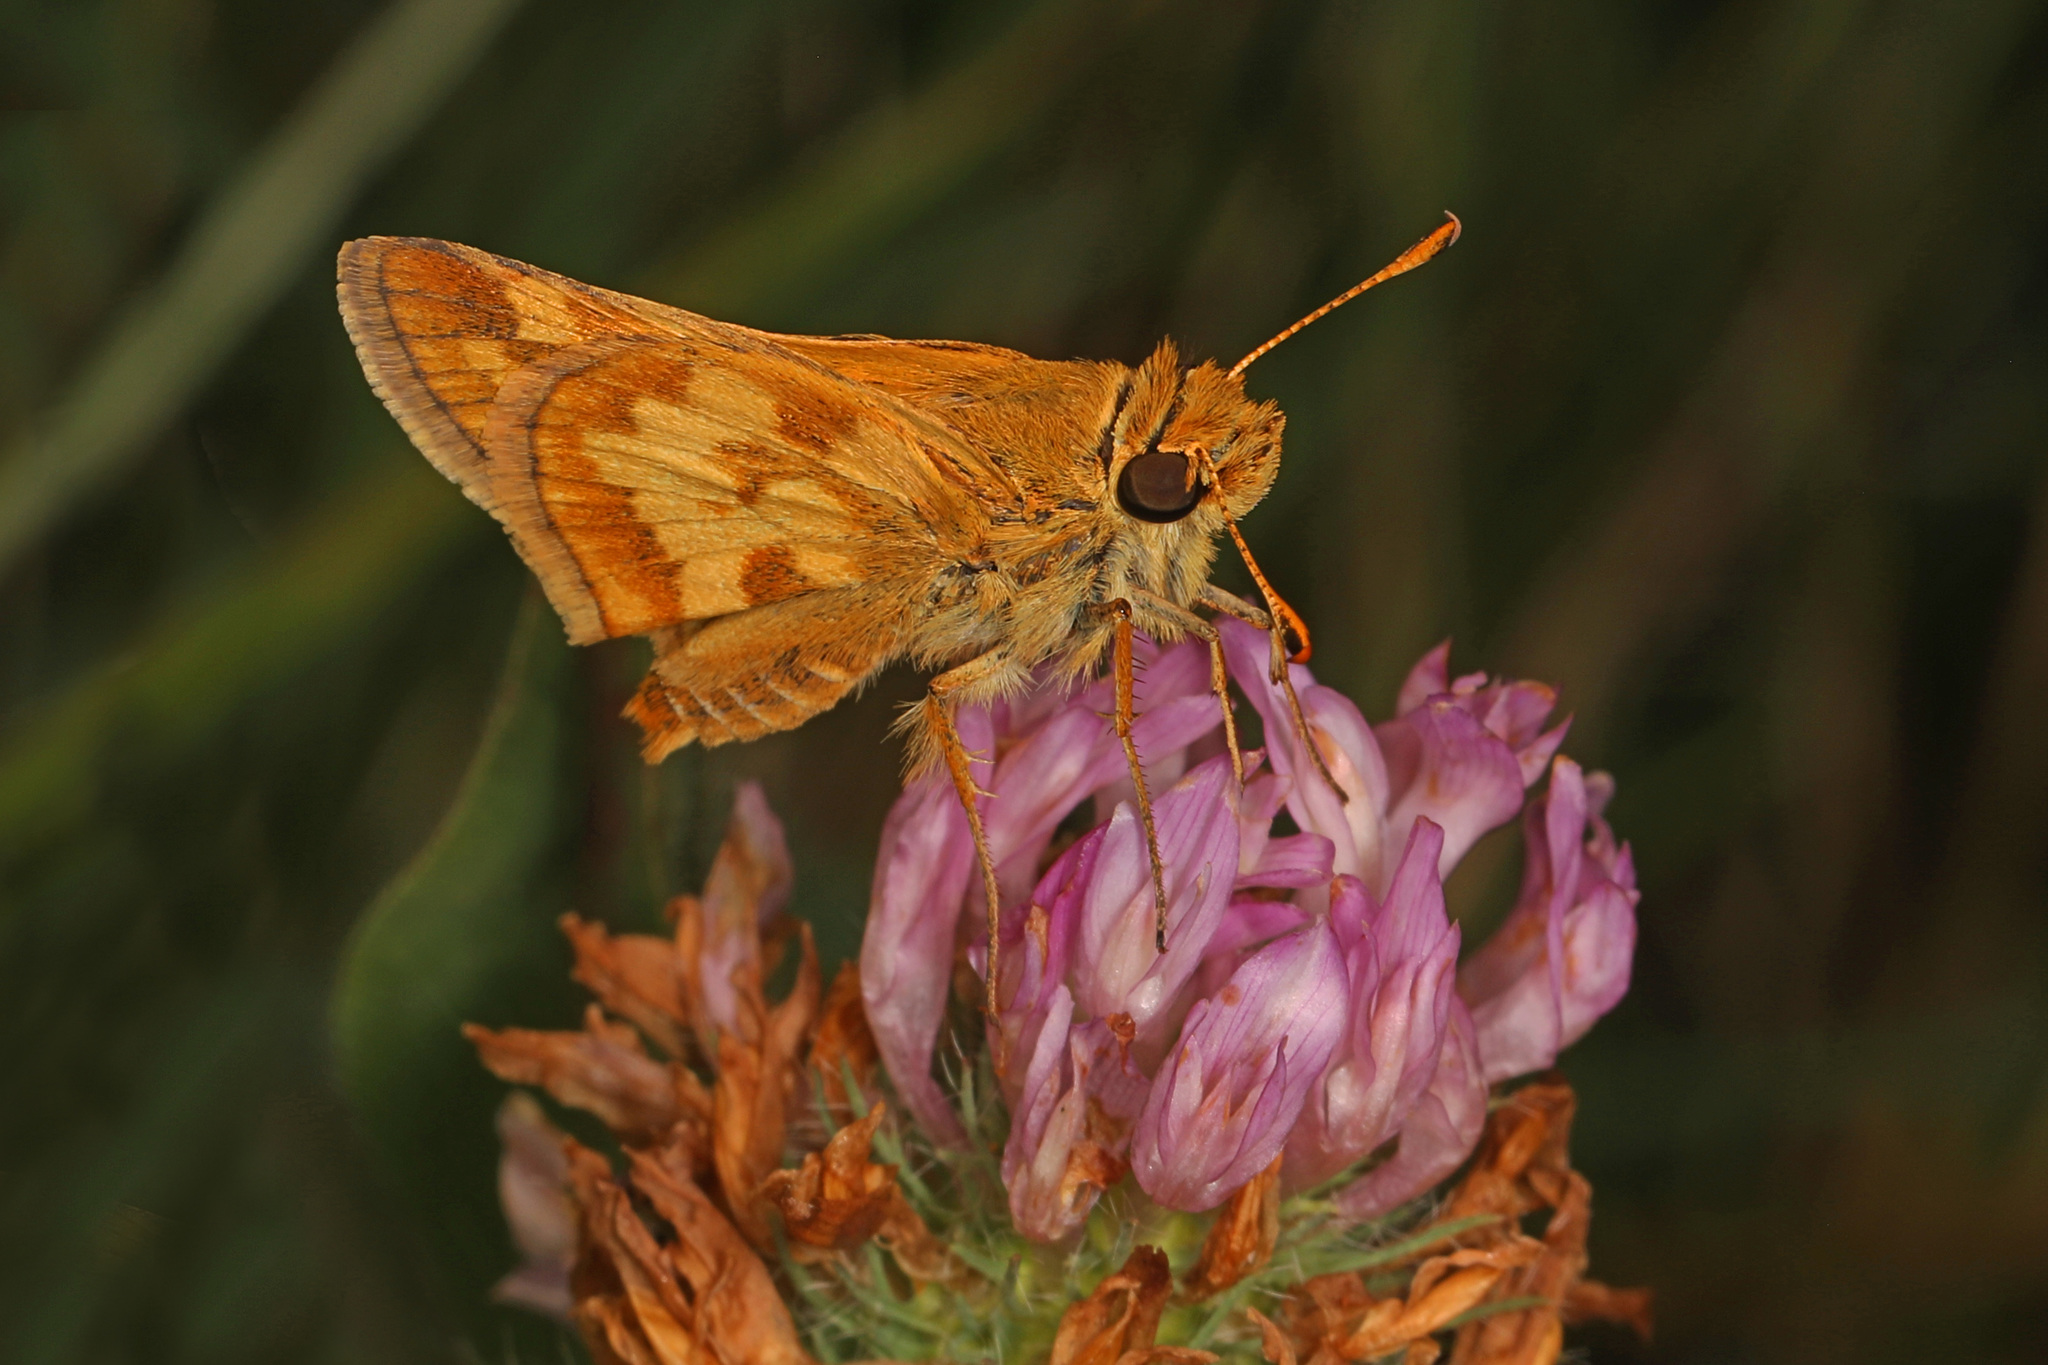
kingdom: Animalia
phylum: Arthropoda
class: Insecta
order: Lepidoptera
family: Hesperiidae
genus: Polites
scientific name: Polites coras
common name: Peck's skipper
